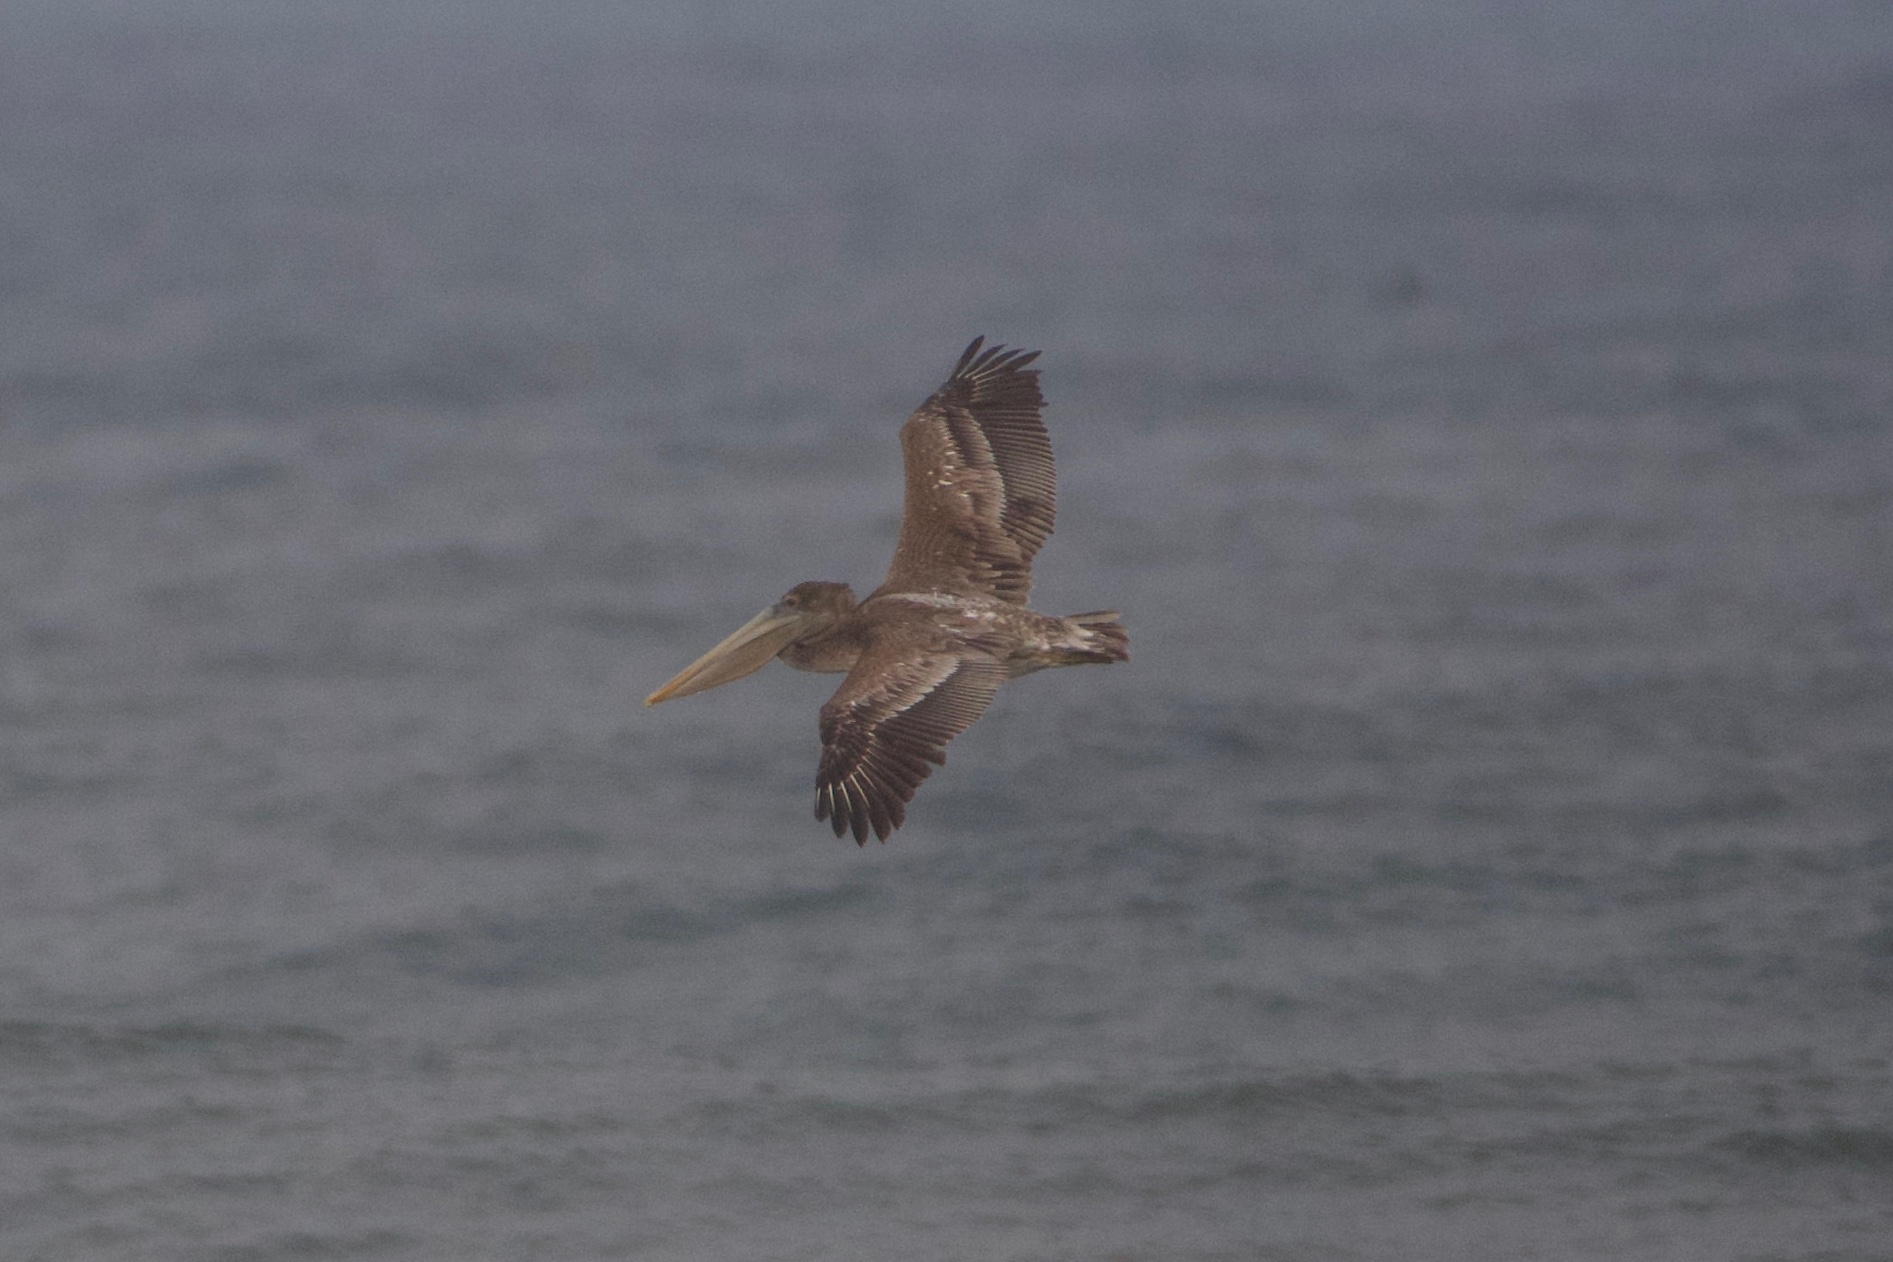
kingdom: Animalia
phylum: Chordata
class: Aves
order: Pelecaniformes
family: Pelecanidae
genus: Pelecanus
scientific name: Pelecanus occidentalis
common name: Brown pelican
